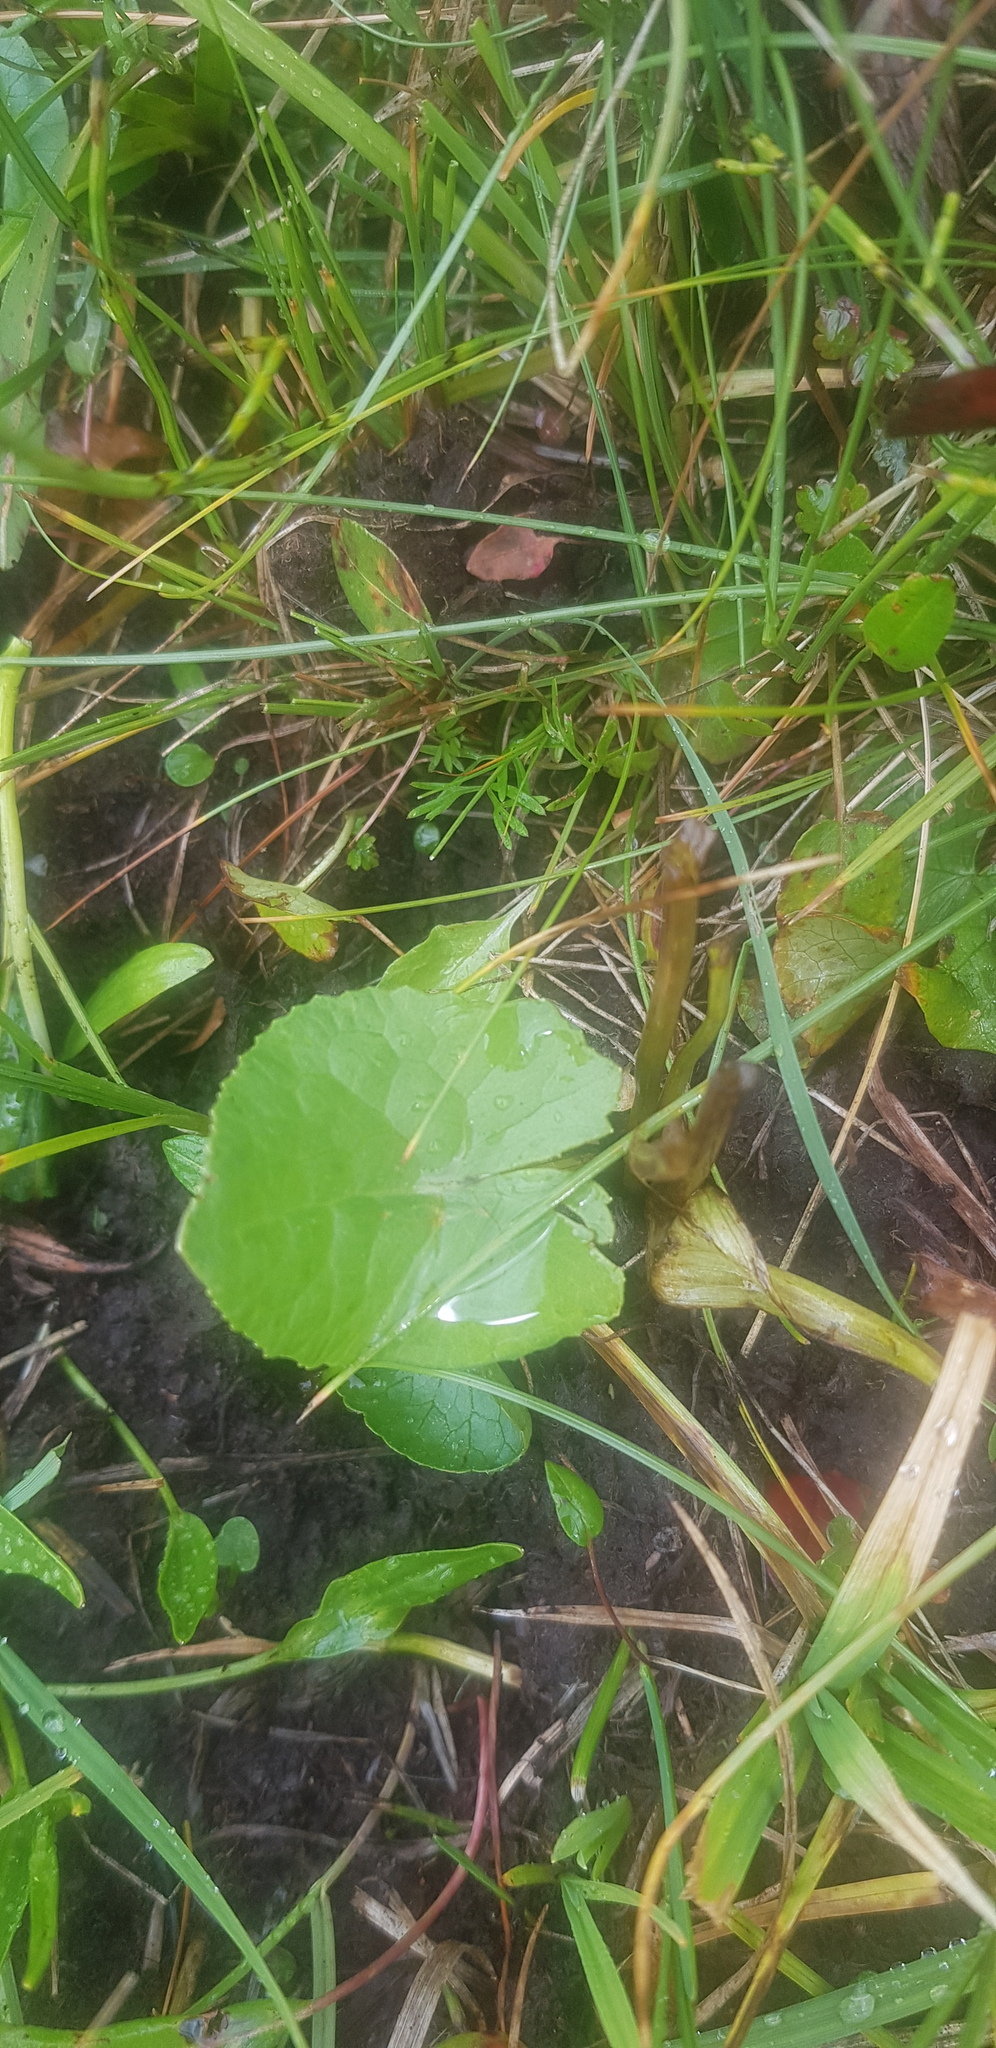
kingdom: Plantae
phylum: Tracheophyta
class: Magnoliopsida
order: Asterales
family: Asteraceae
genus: Ligularia
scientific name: Ligularia sibirica
